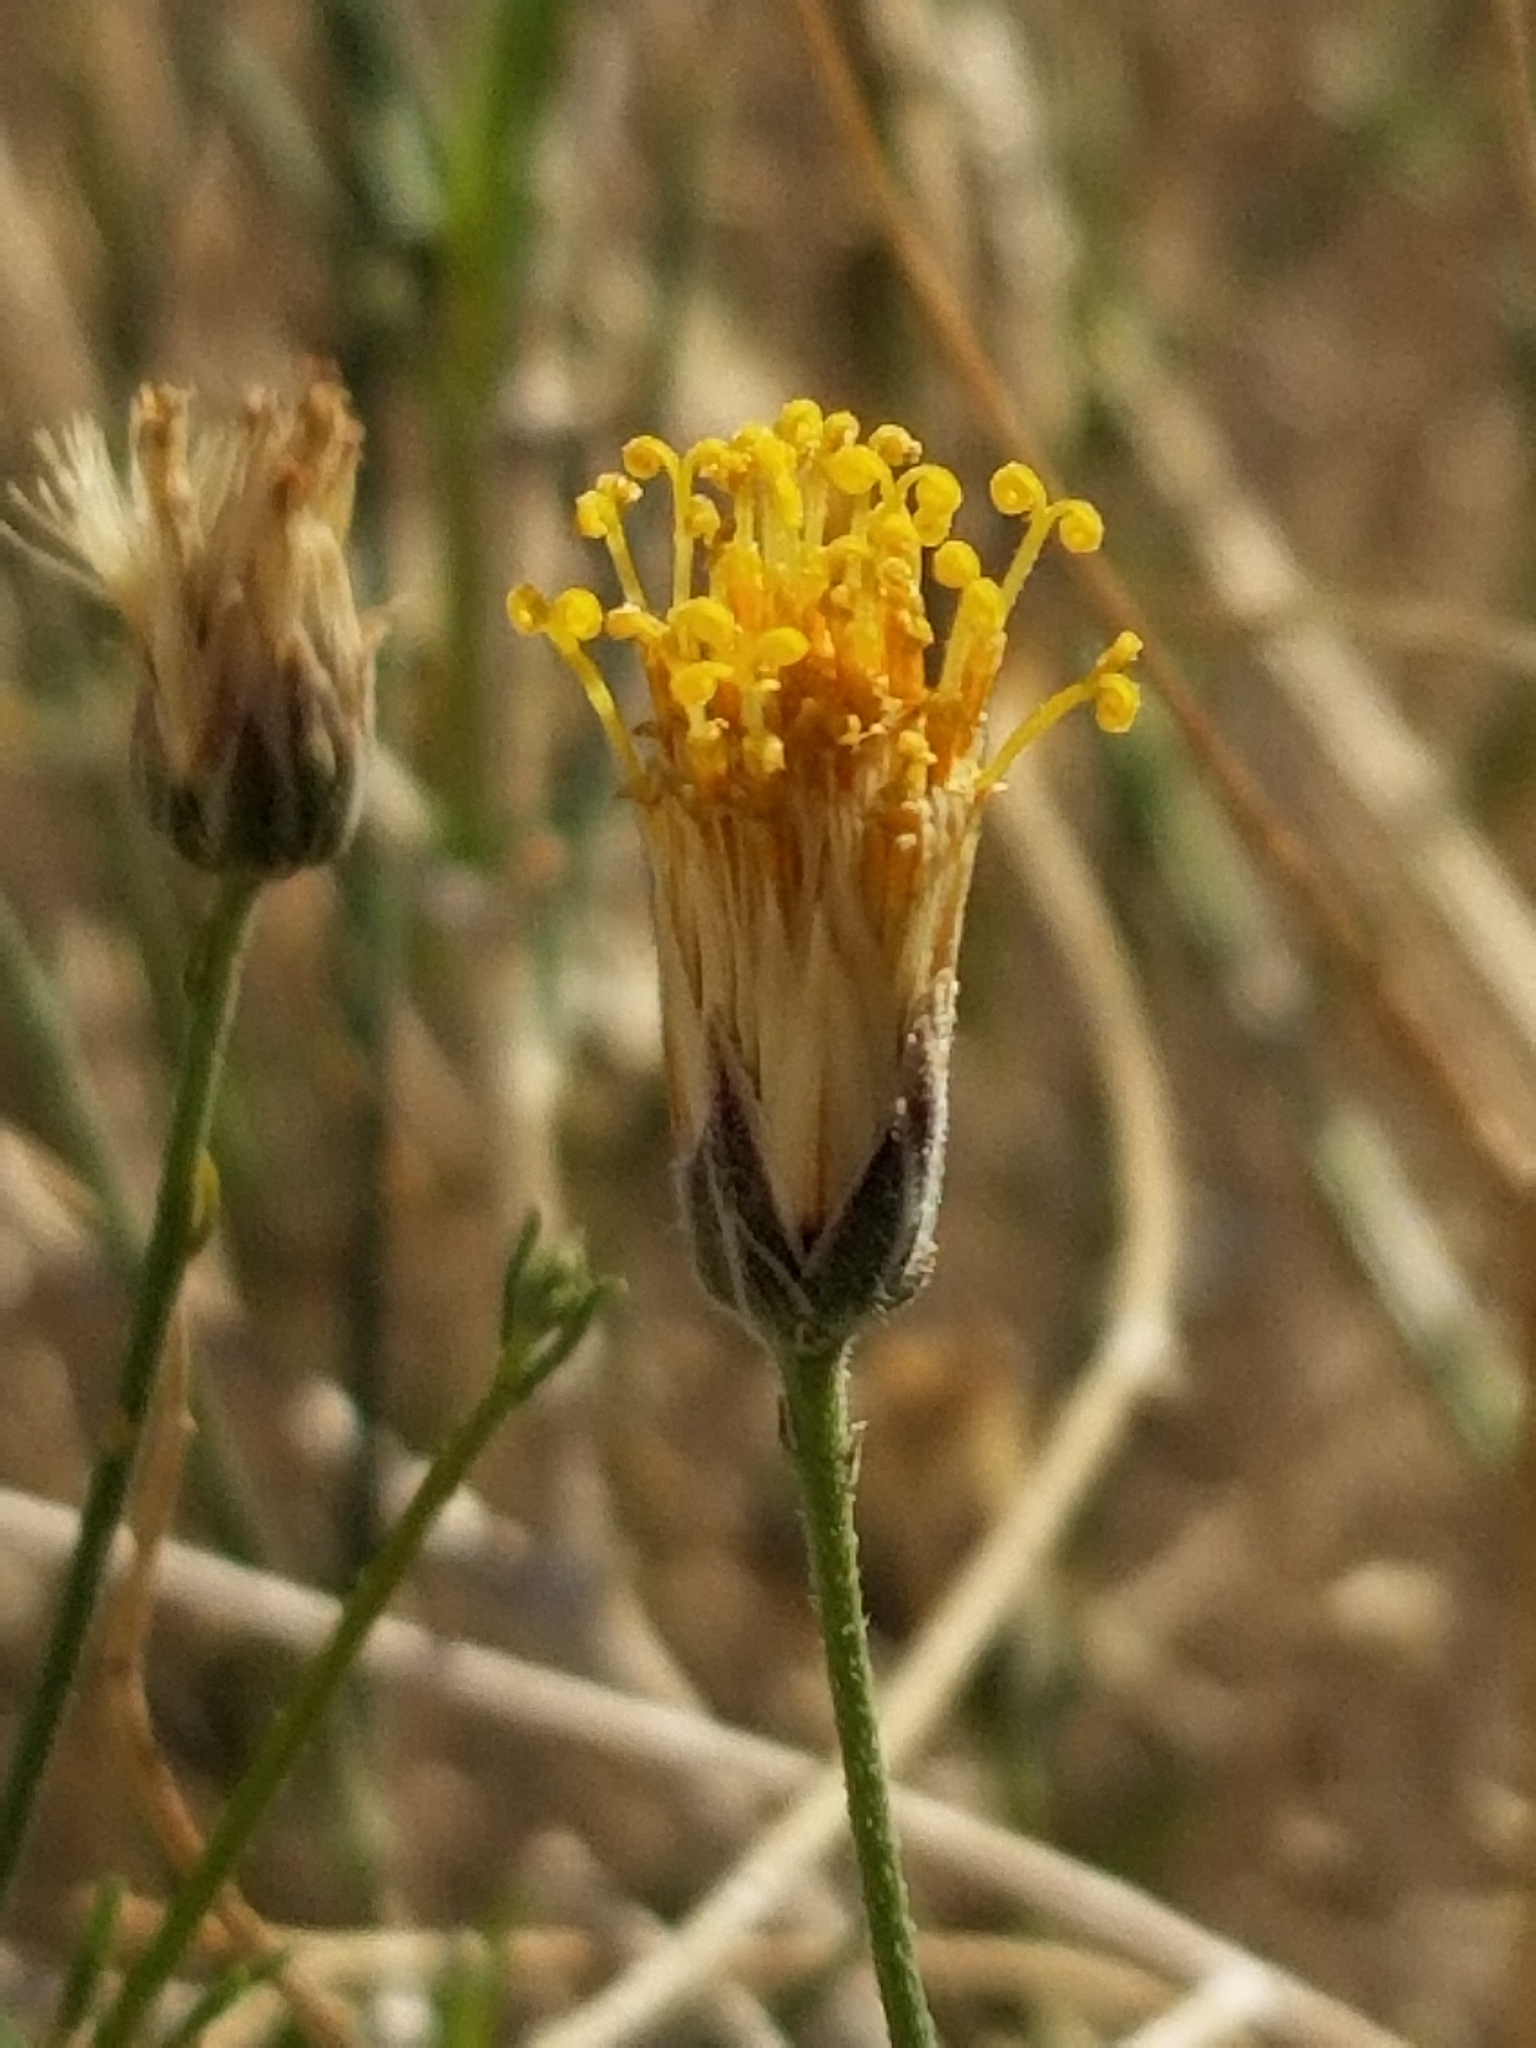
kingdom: Plantae
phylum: Tracheophyta
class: Magnoliopsida
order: Asterales
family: Asteraceae
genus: Bebbia
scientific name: Bebbia juncea
